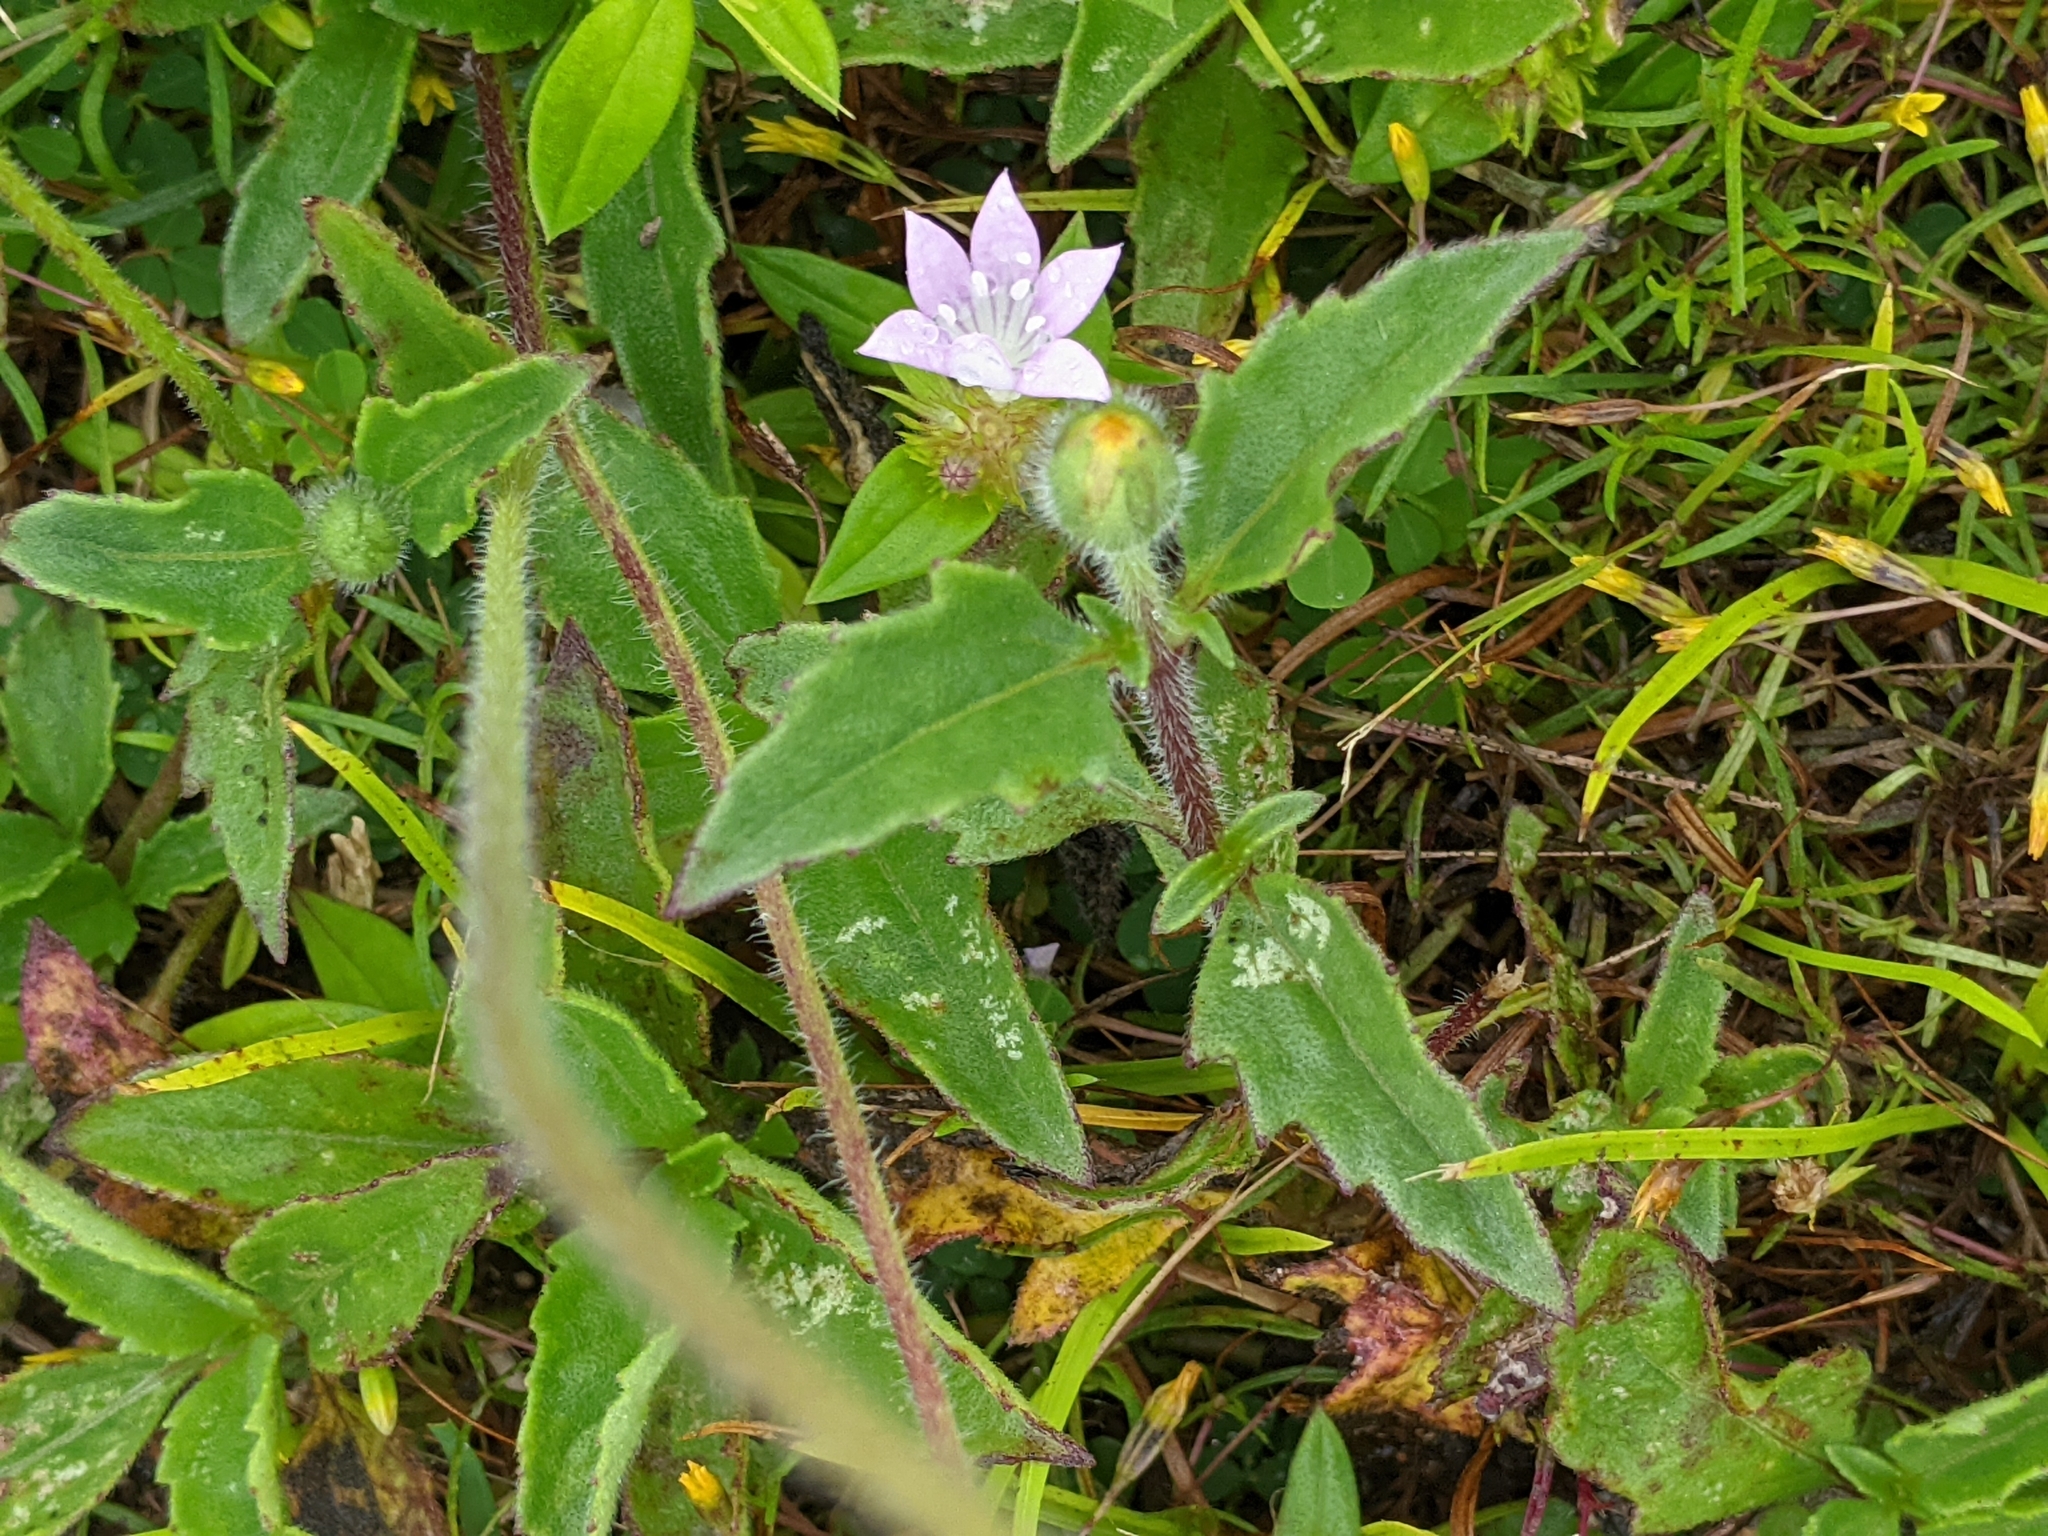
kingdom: Plantae
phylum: Tracheophyta
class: Magnoliopsida
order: Asterales
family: Asteraceae
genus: Tridax
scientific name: Tridax procumbens
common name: Coatbuttons
